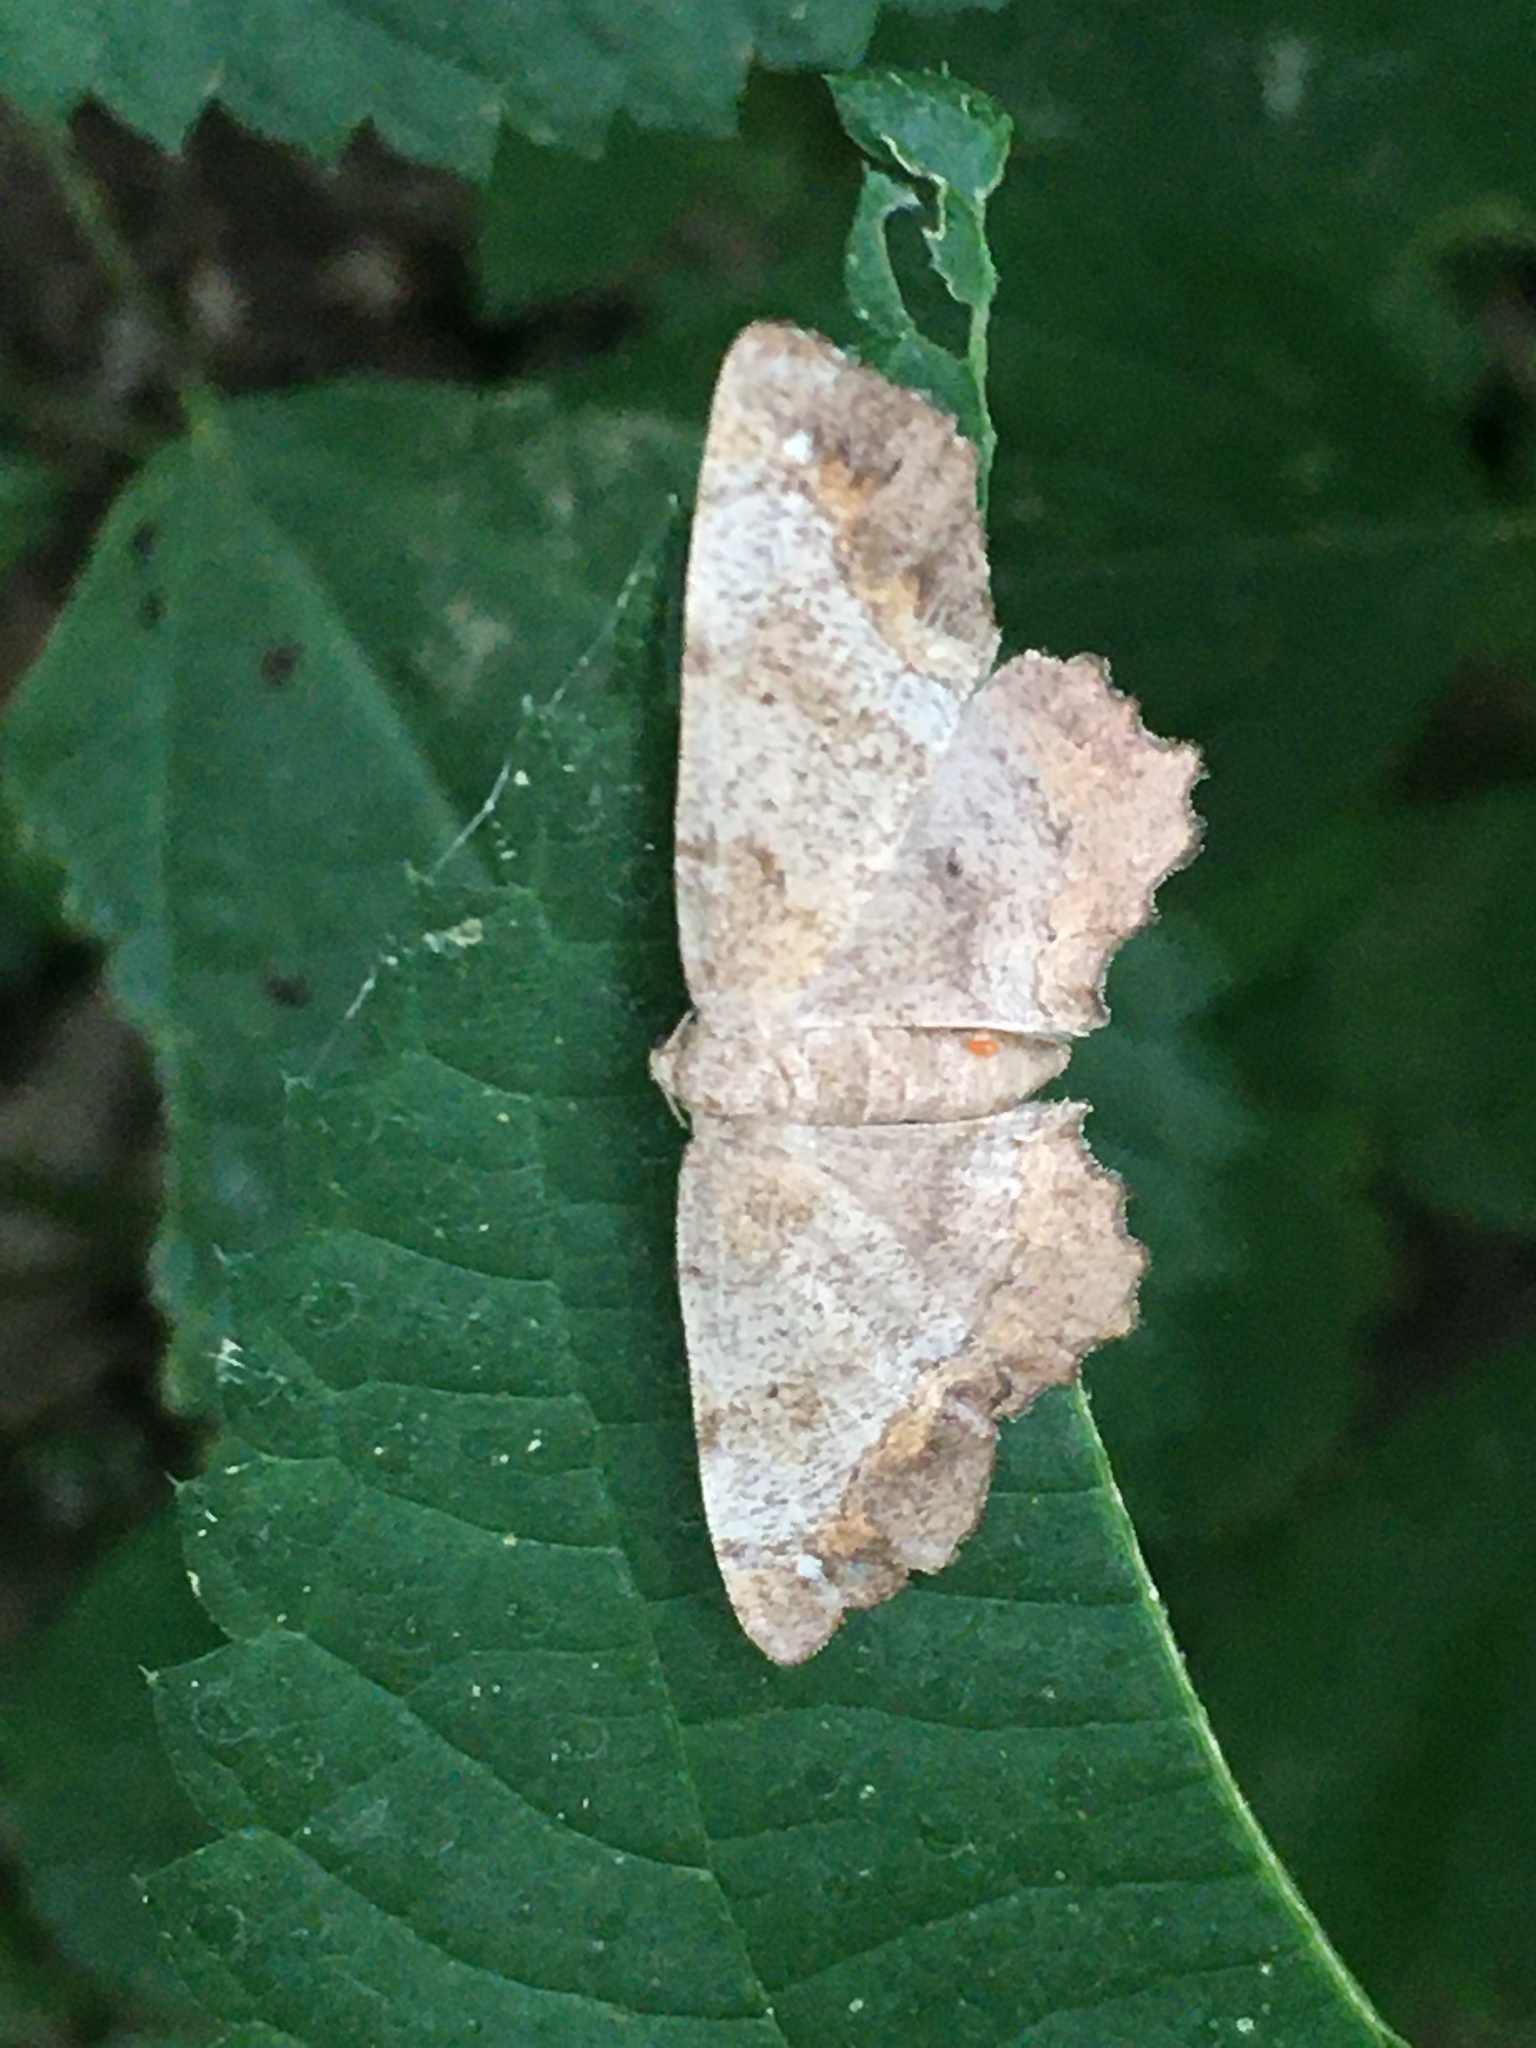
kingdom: Animalia
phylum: Arthropoda
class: Insecta
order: Lepidoptera
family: Geometridae
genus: Hypagyrtis
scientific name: Hypagyrtis unipunctata
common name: One-spotted variant
